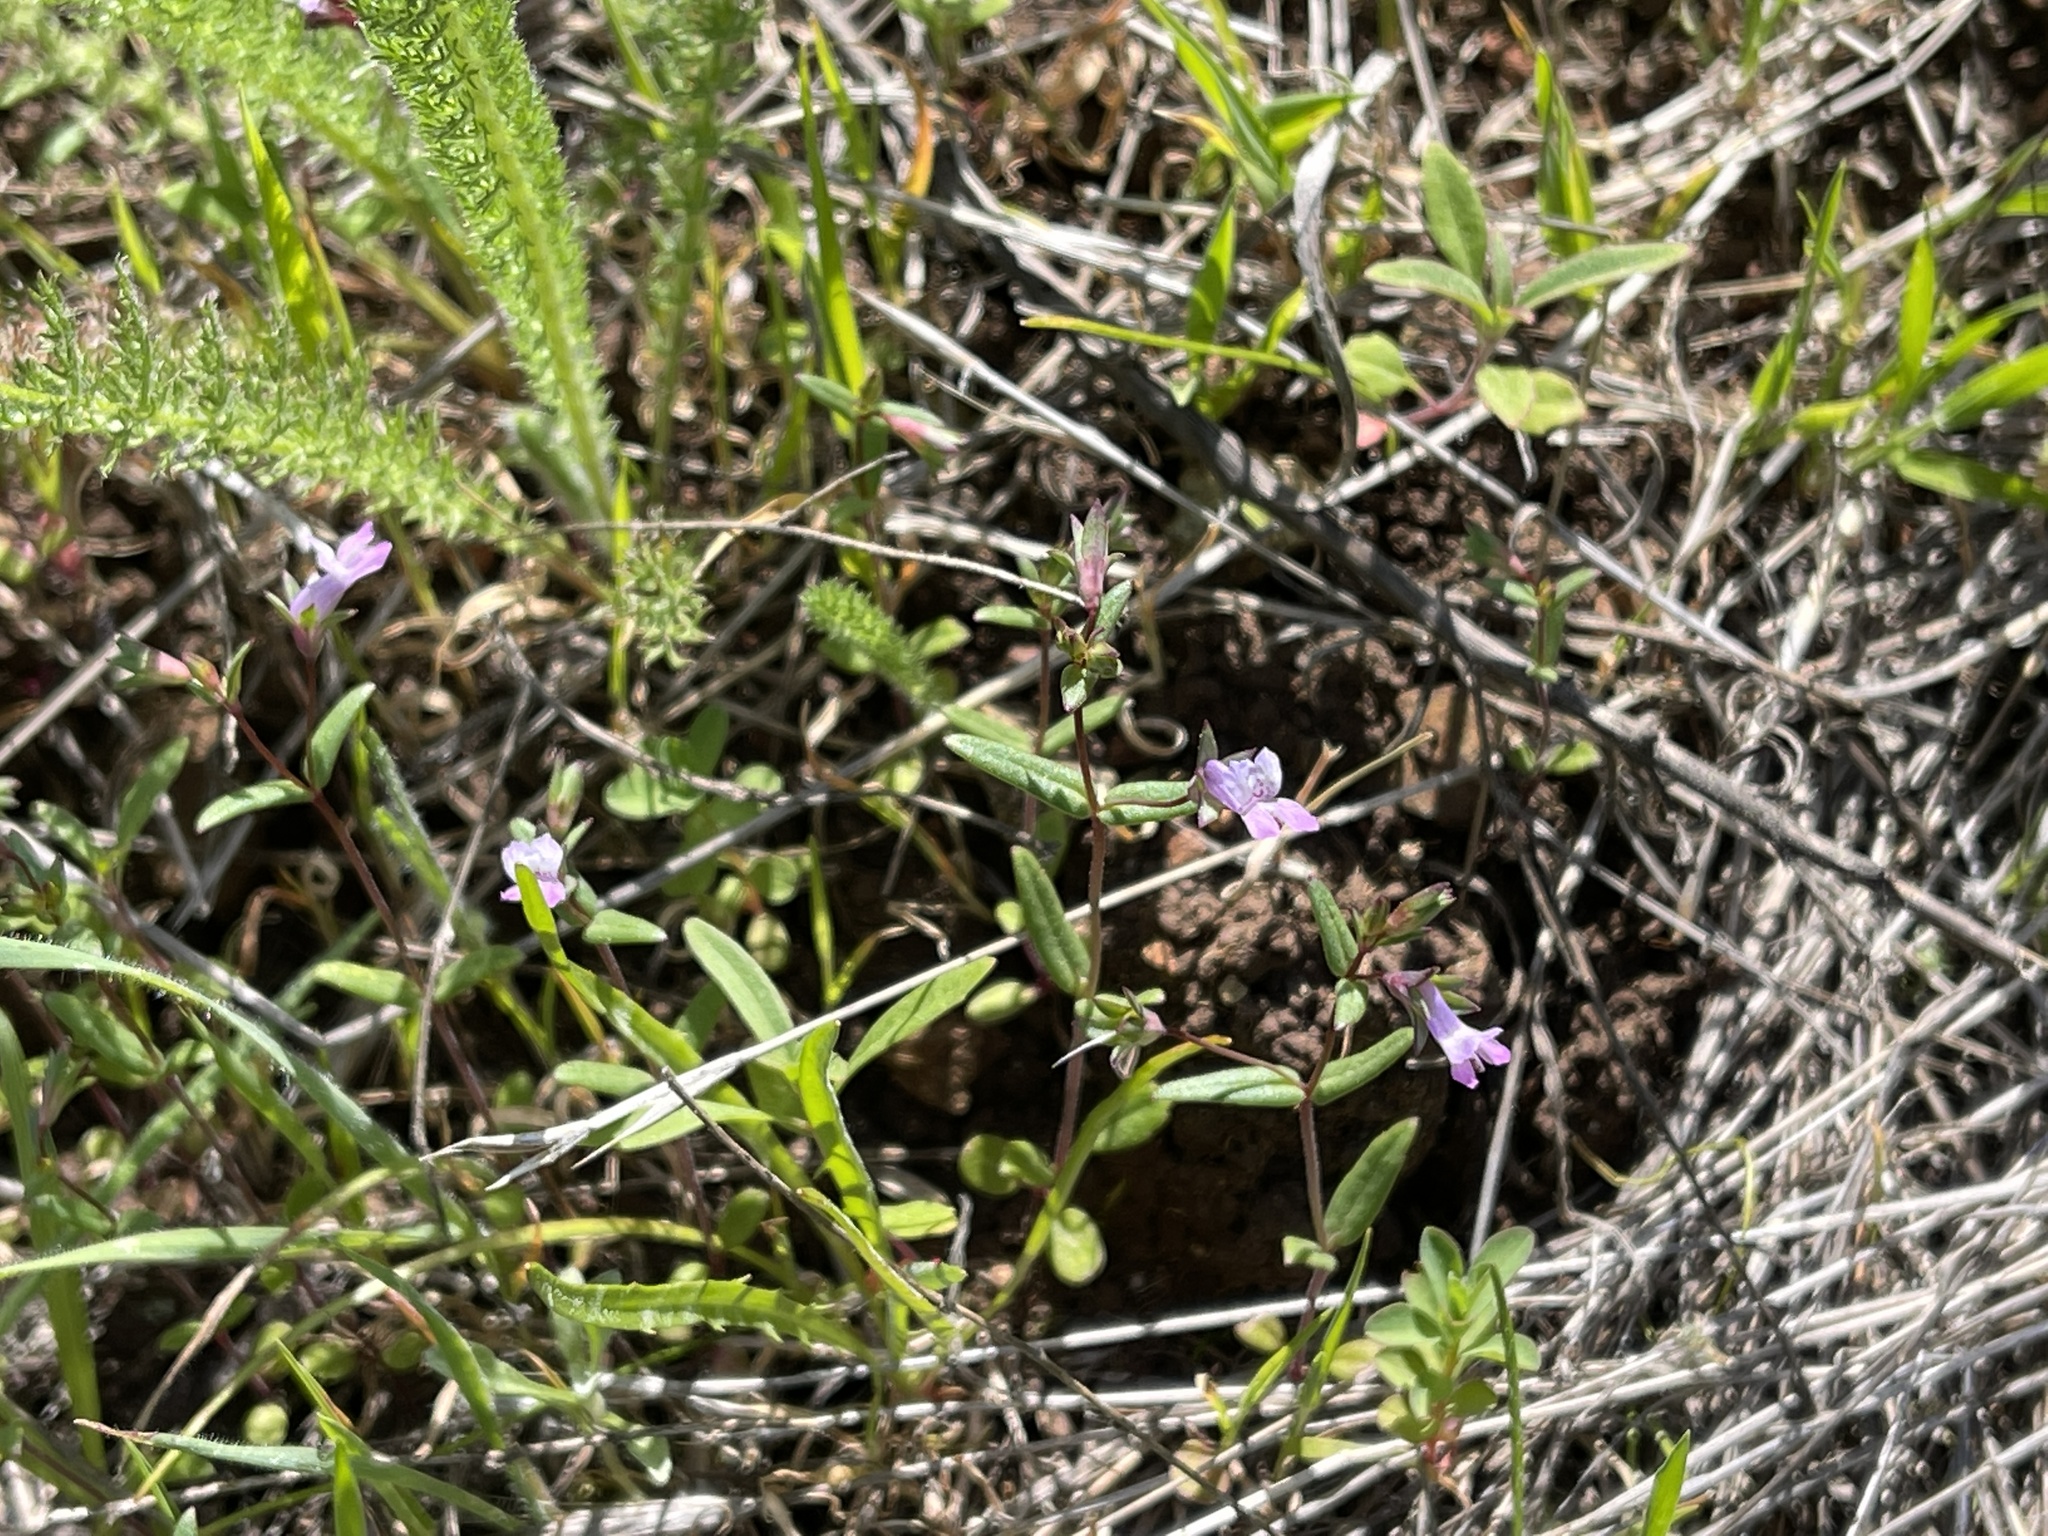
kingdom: Plantae
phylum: Tracheophyta
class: Magnoliopsida
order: Lamiales
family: Plantaginaceae
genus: Collinsia
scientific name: Collinsia sparsiflora
